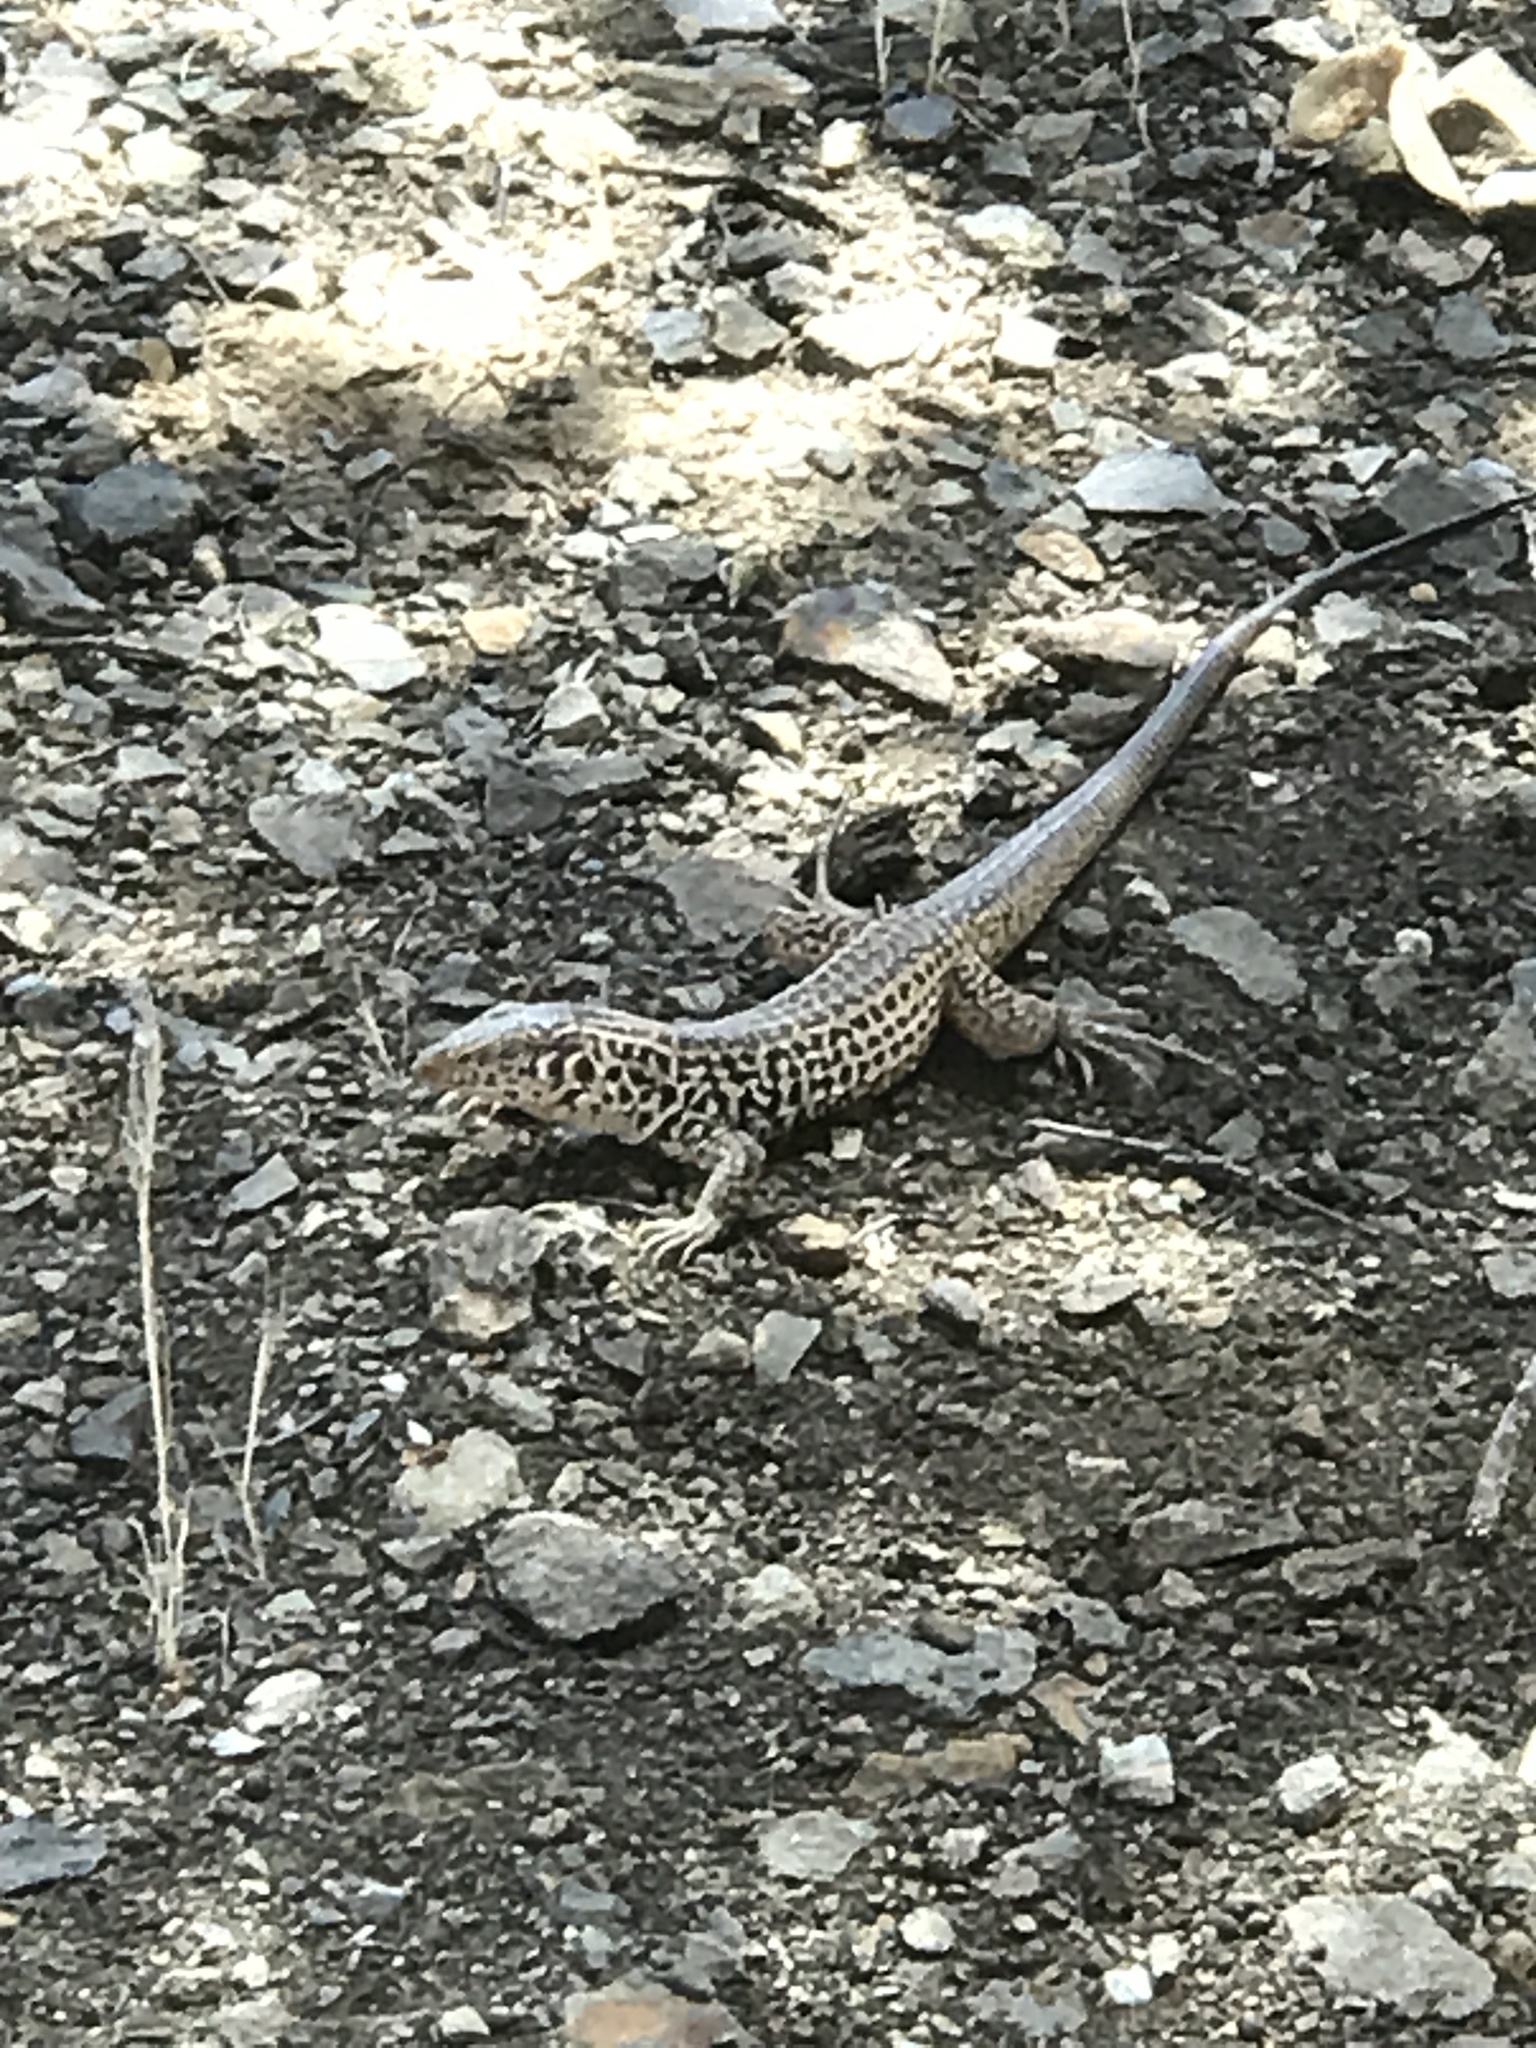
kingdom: Animalia
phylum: Chordata
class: Squamata
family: Teiidae
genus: Aspidoscelis
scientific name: Aspidoscelis tigris
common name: Tiger whiptail
